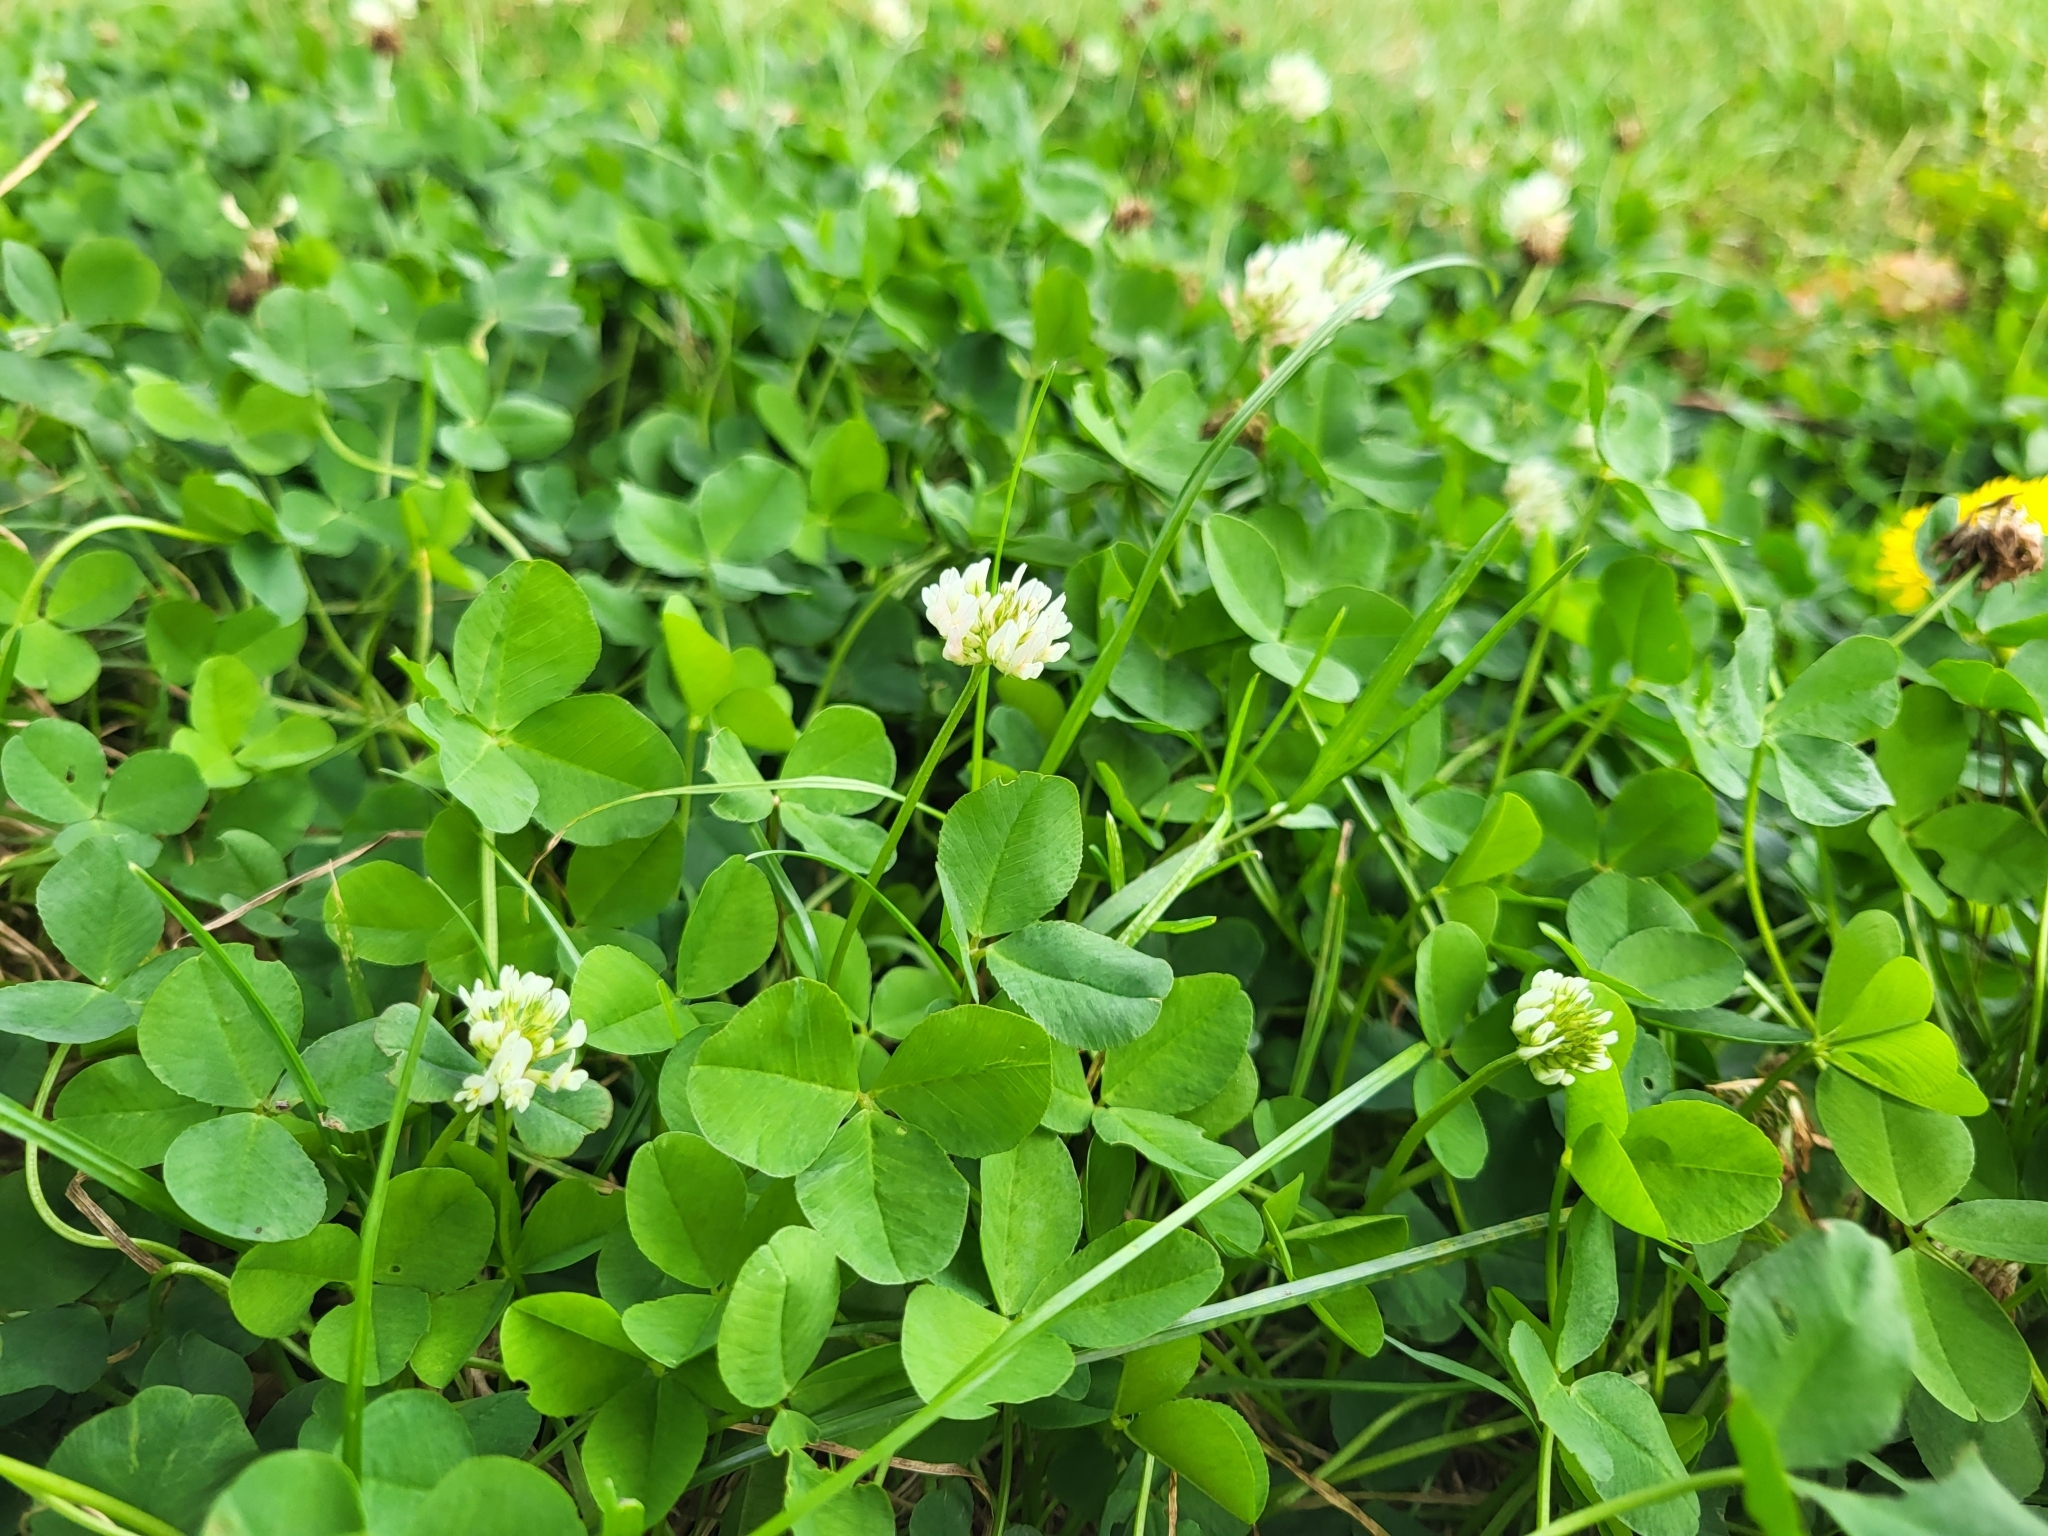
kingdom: Plantae
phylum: Tracheophyta
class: Magnoliopsida
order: Fabales
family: Fabaceae
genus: Trifolium
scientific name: Trifolium repens
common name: White clover
